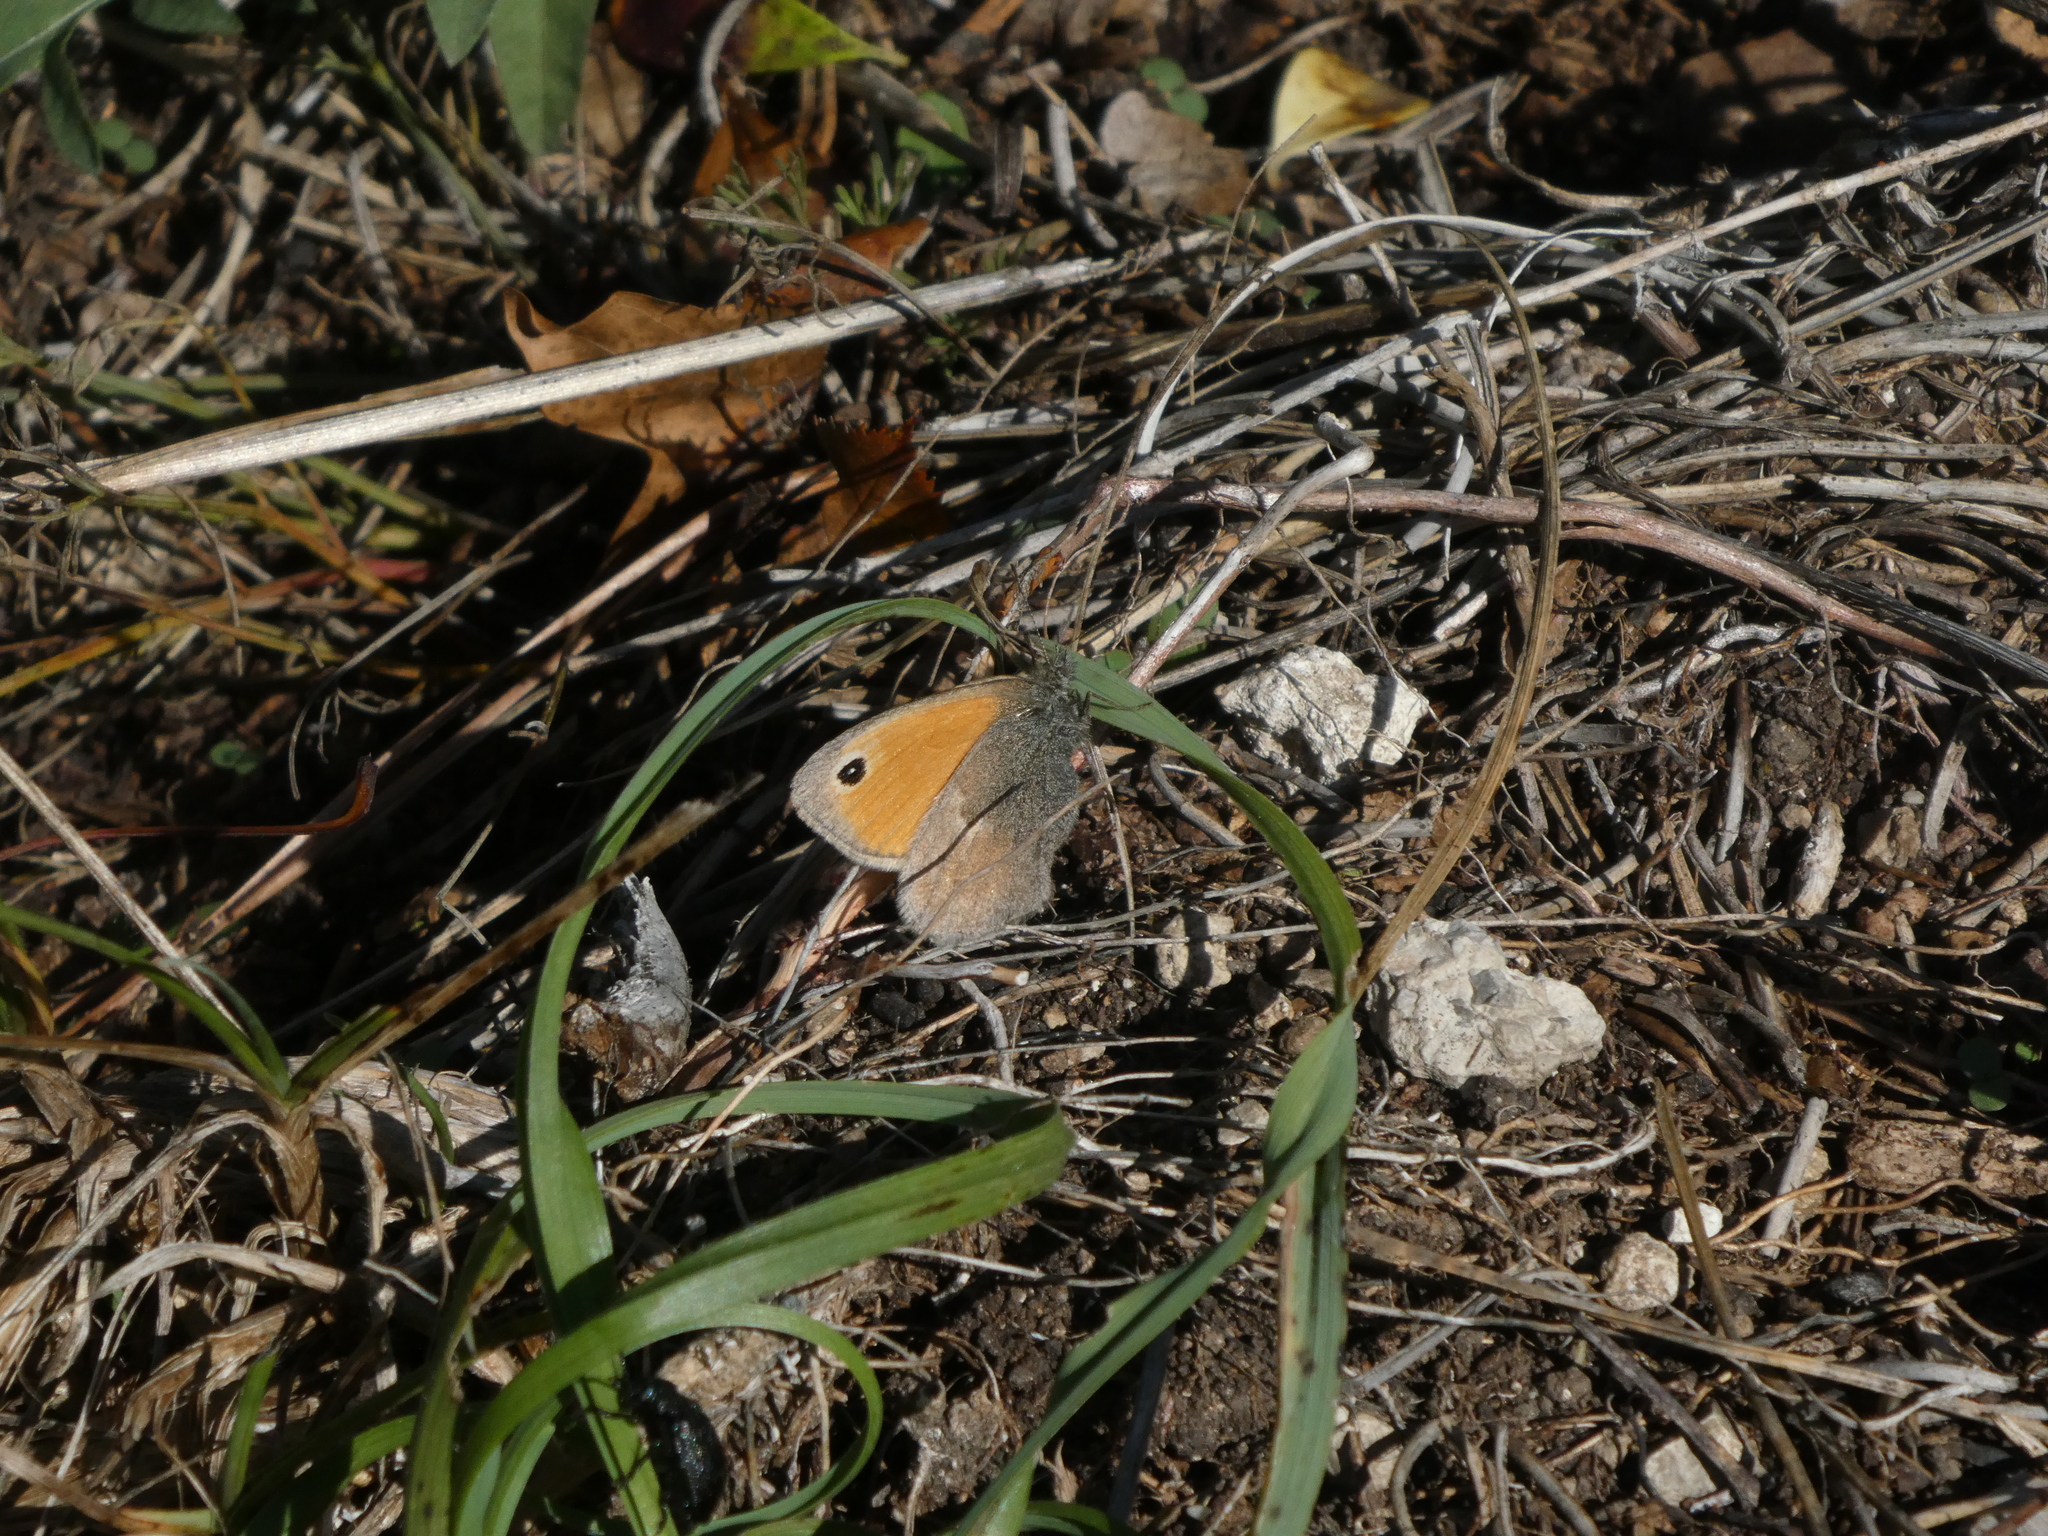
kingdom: Animalia
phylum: Arthropoda
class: Insecta
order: Lepidoptera
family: Nymphalidae
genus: Coenonympha
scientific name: Coenonympha pamphilus
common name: Small heath
